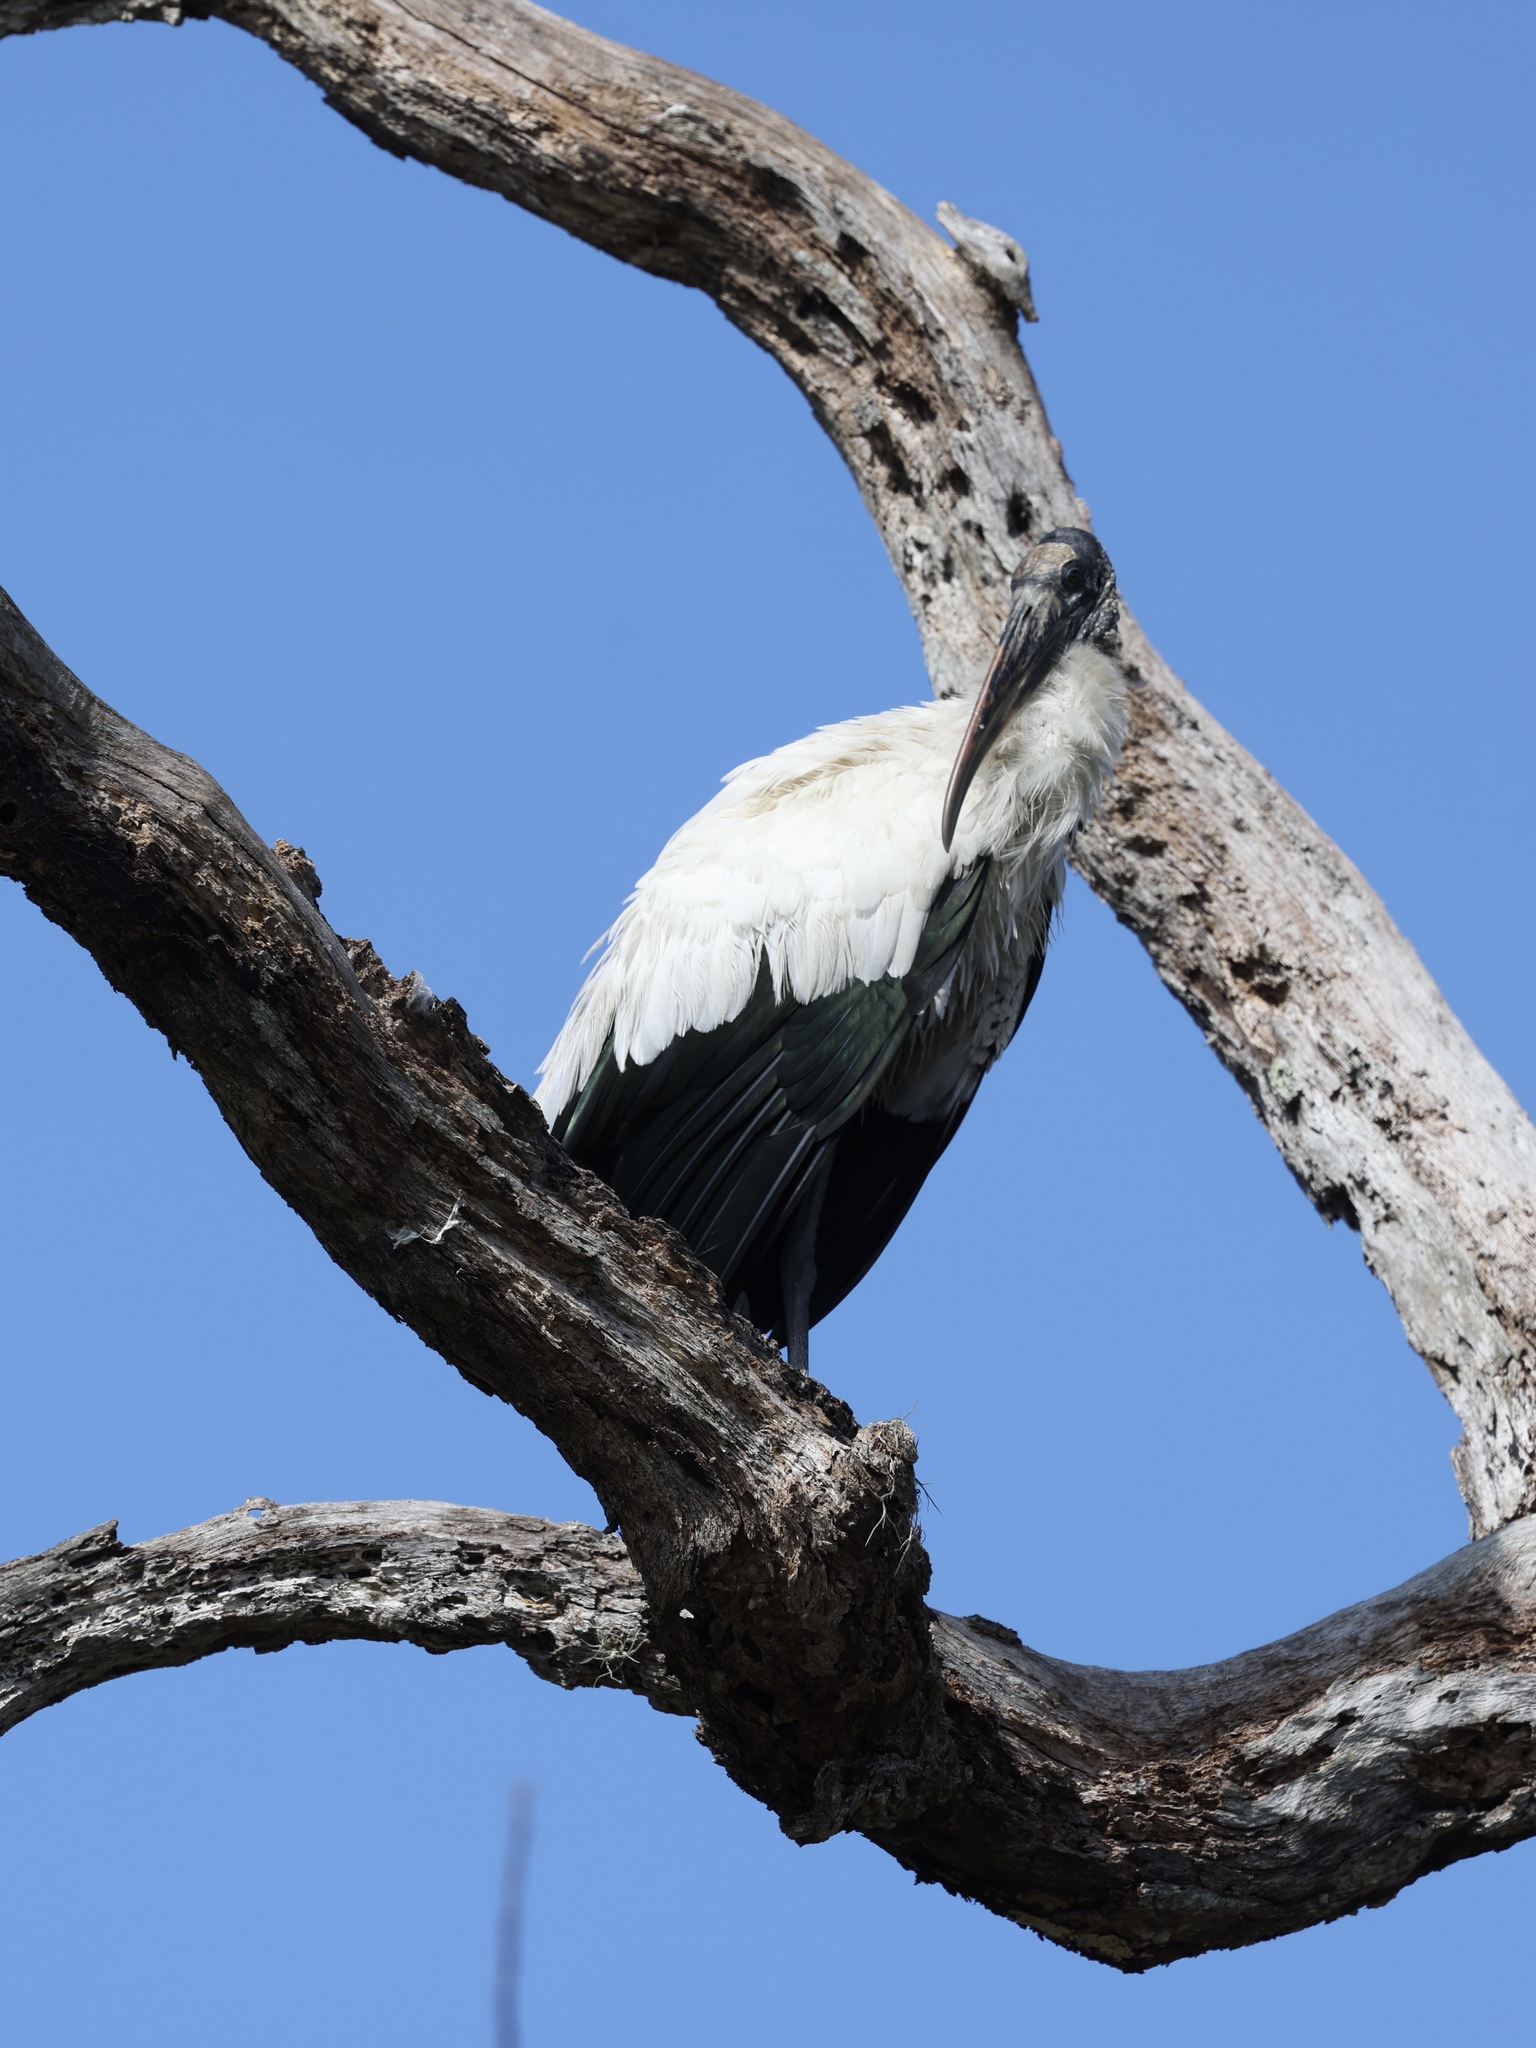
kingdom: Animalia
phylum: Chordata
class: Aves
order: Ciconiiformes
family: Ciconiidae
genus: Mycteria
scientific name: Mycteria americana
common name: Wood stork
